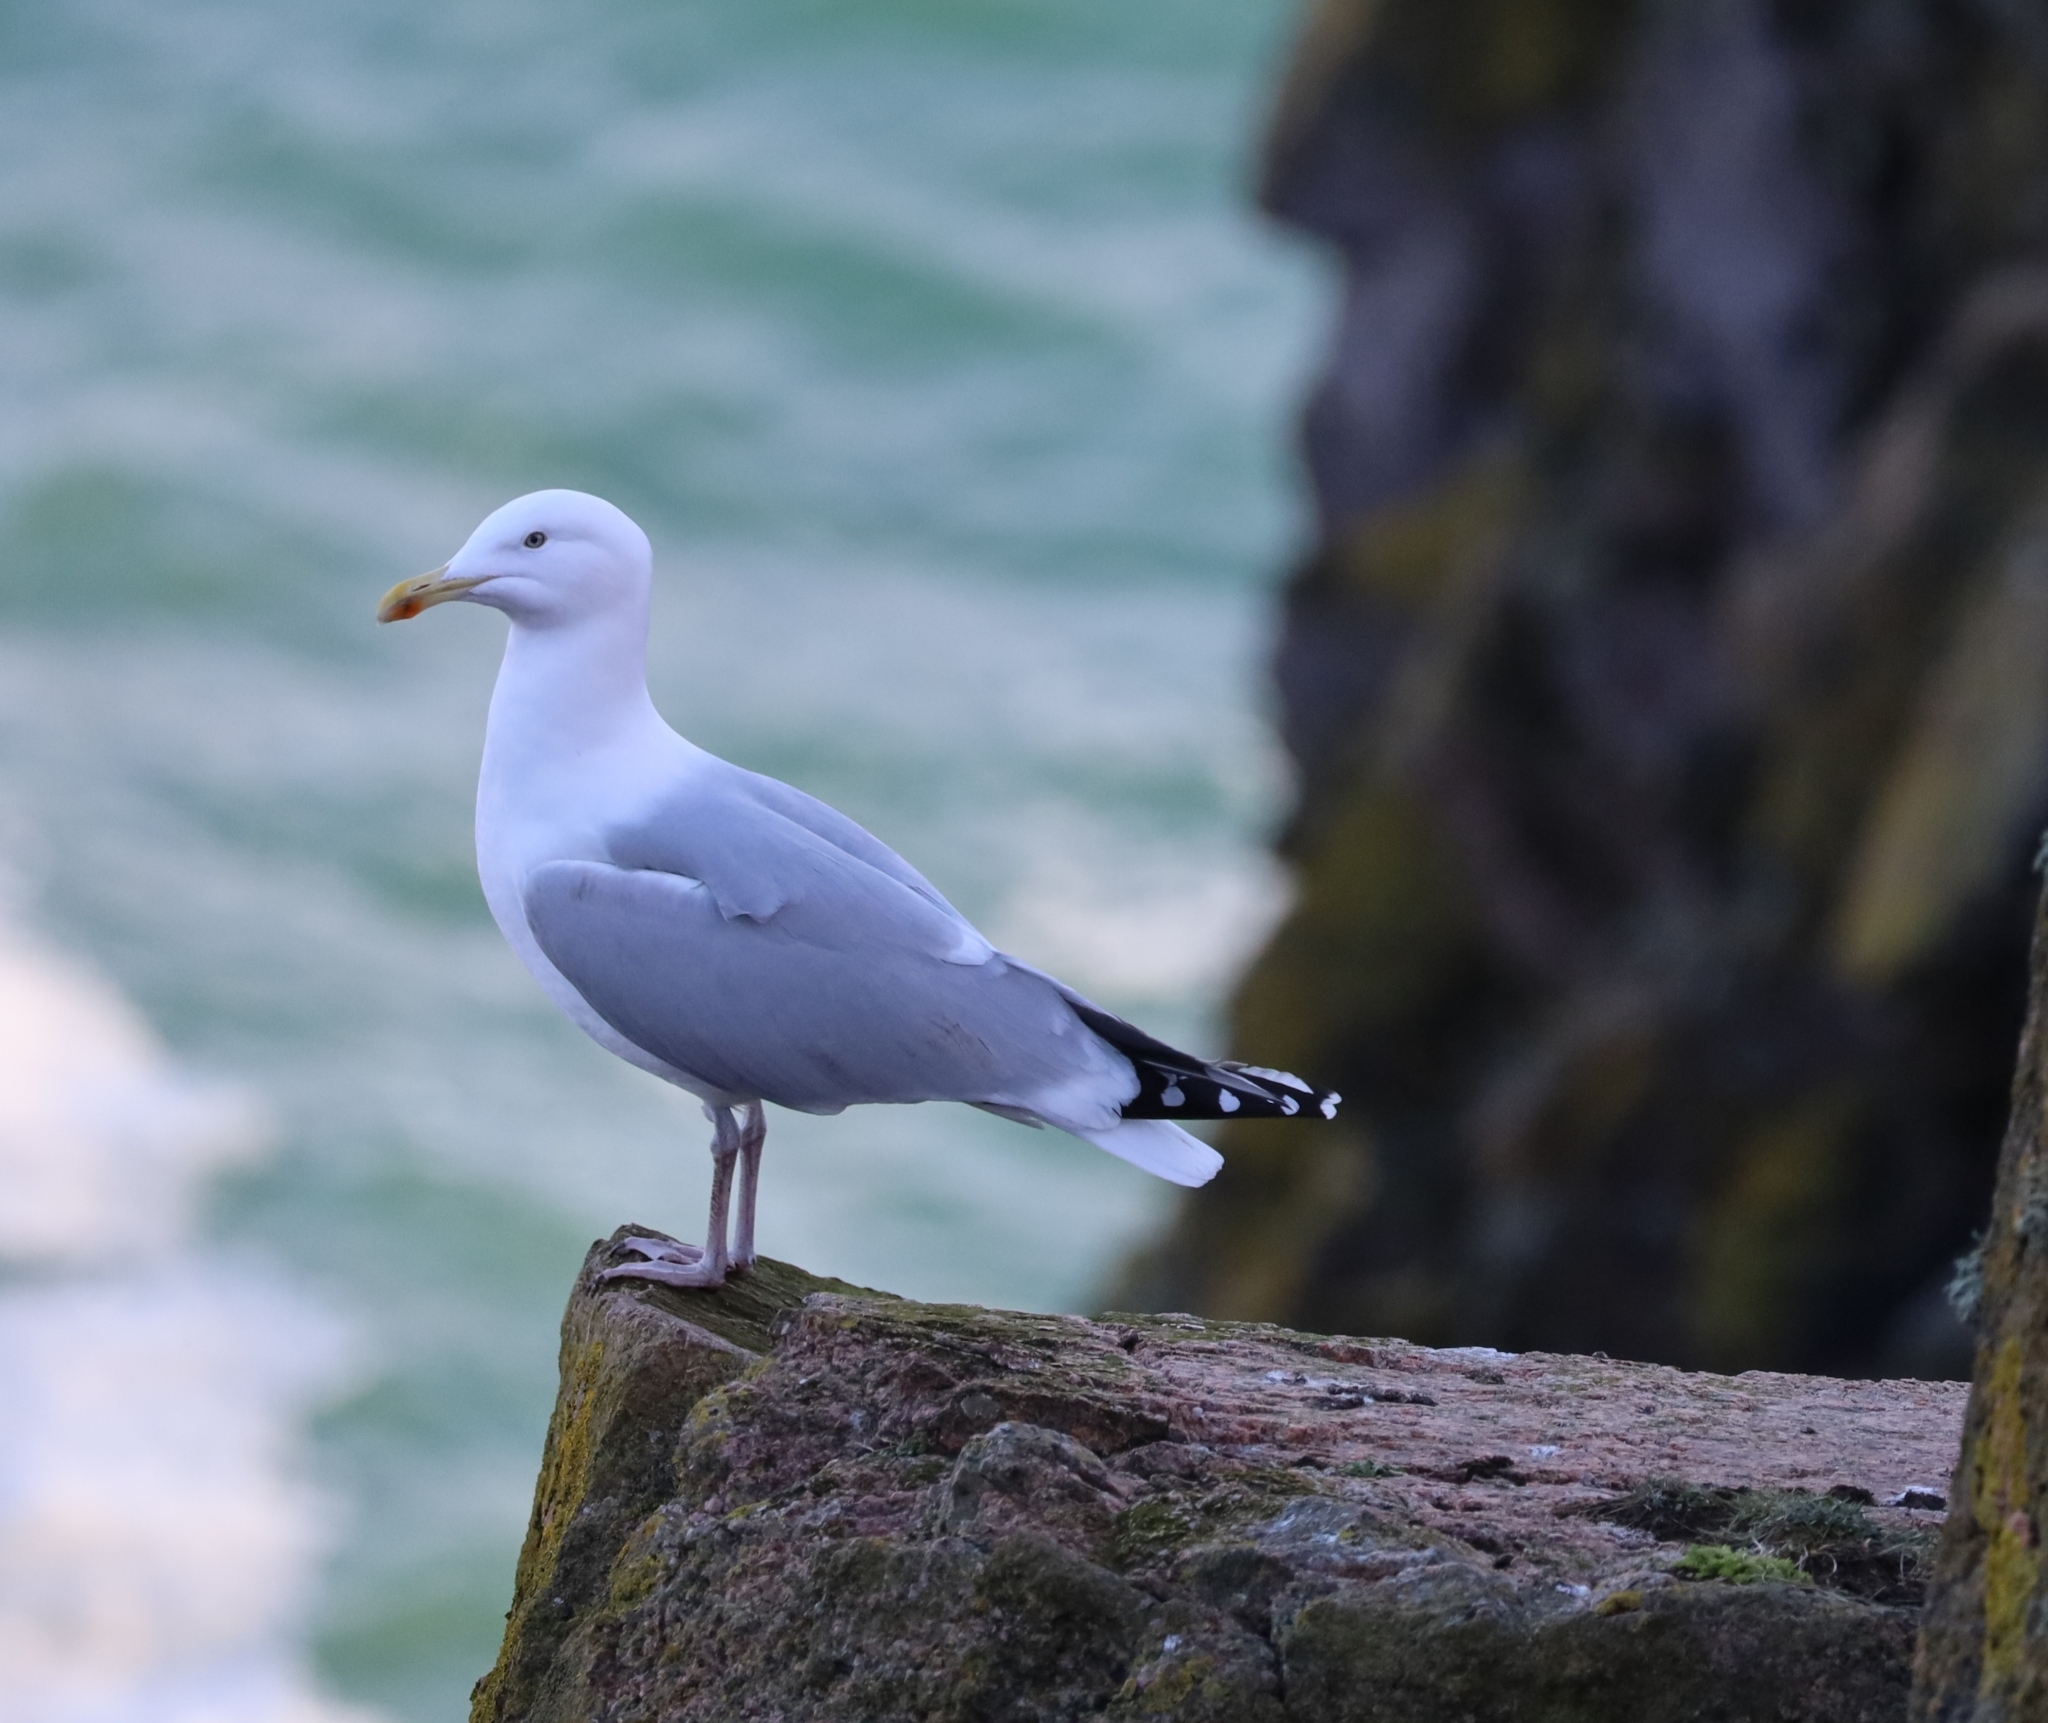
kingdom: Animalia
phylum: Chordata
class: Aves
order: Charadriiformes
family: Laridae
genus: Larus
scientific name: Larus argentatus
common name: Herring gull
